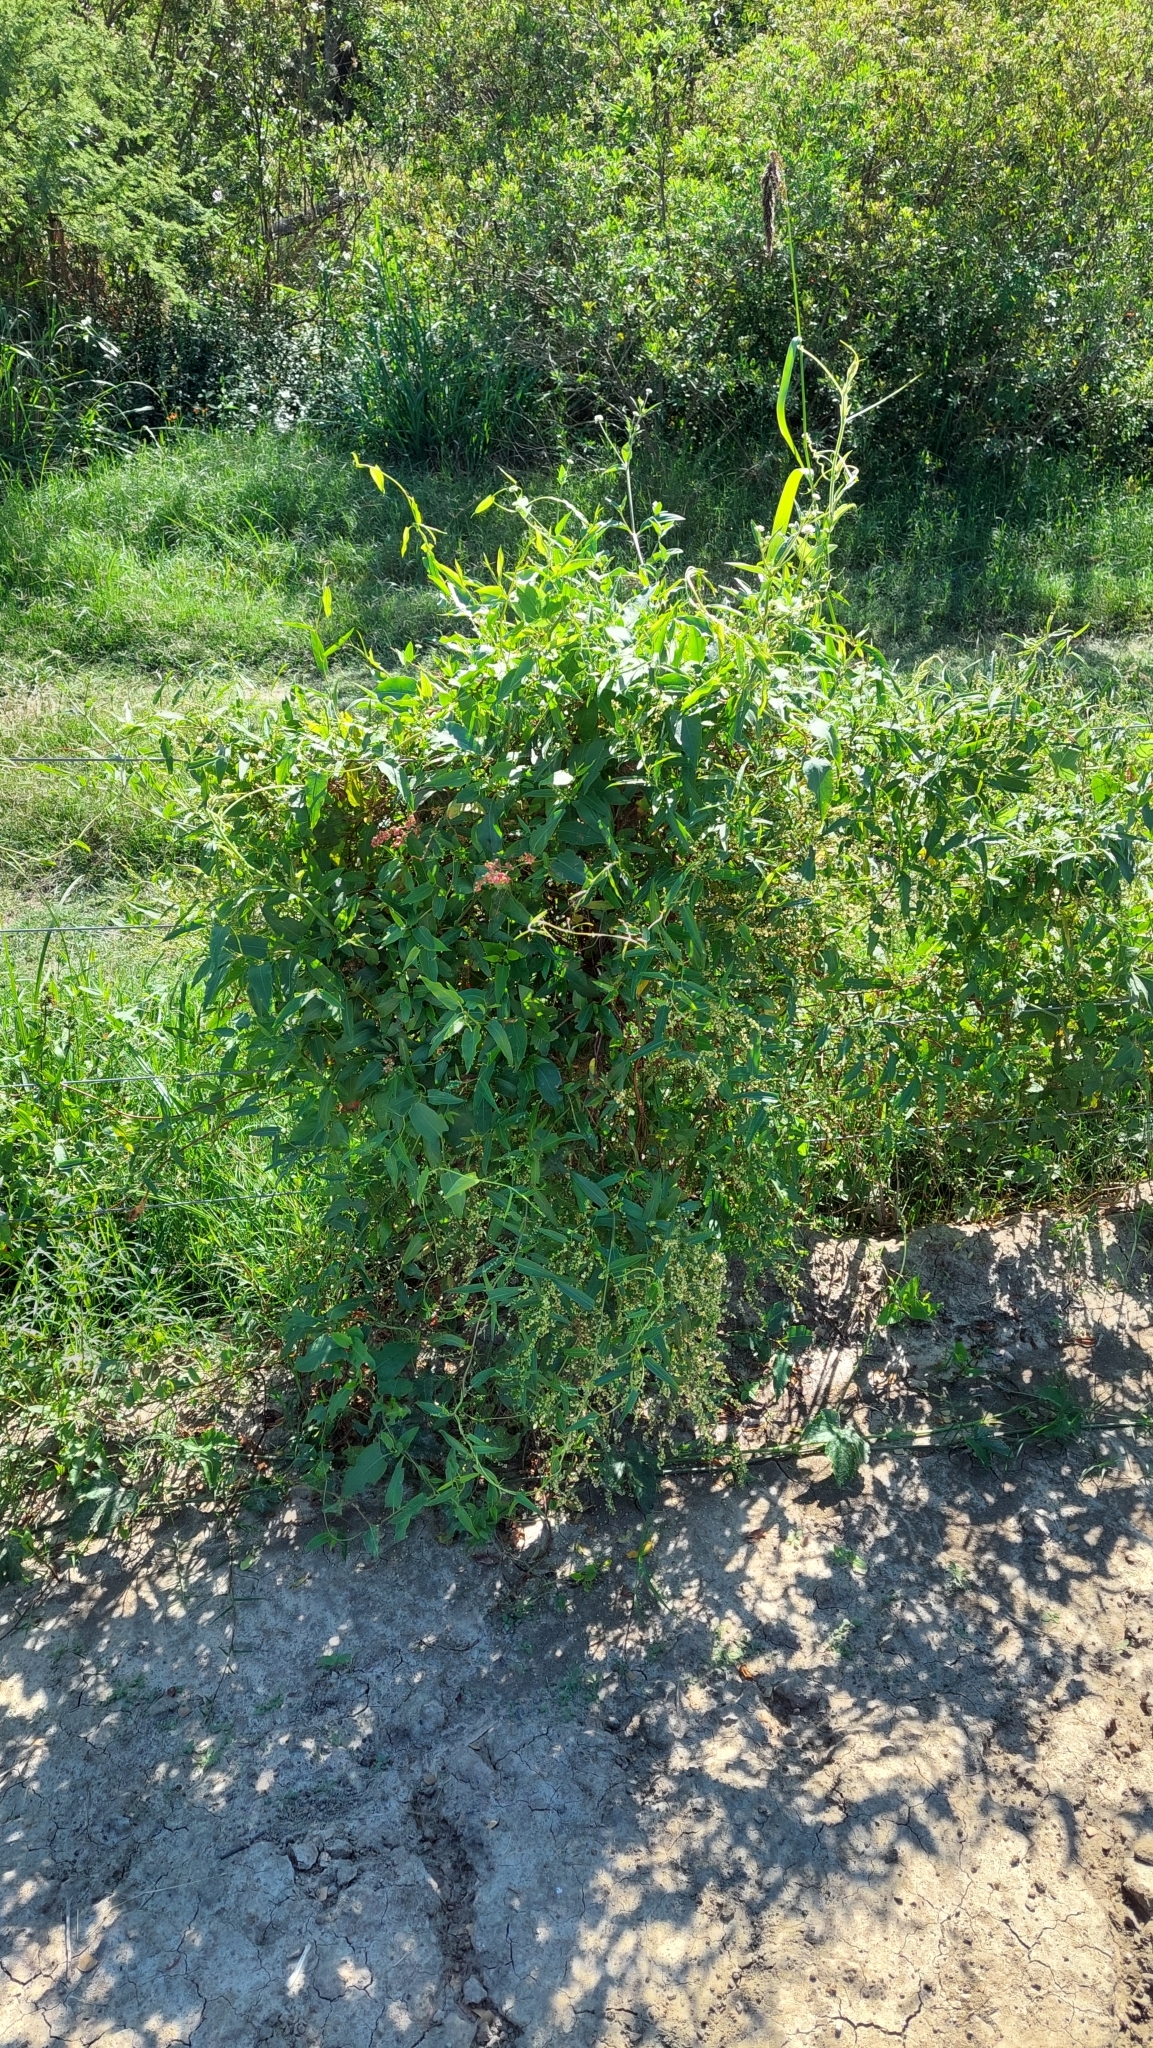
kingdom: Plantae
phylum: Tracheophyta
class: Magnoliopsida
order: Caryophyllales
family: Polygonaceae
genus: Muehlenbeckia
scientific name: Muehlenbeckia sagittifolia
